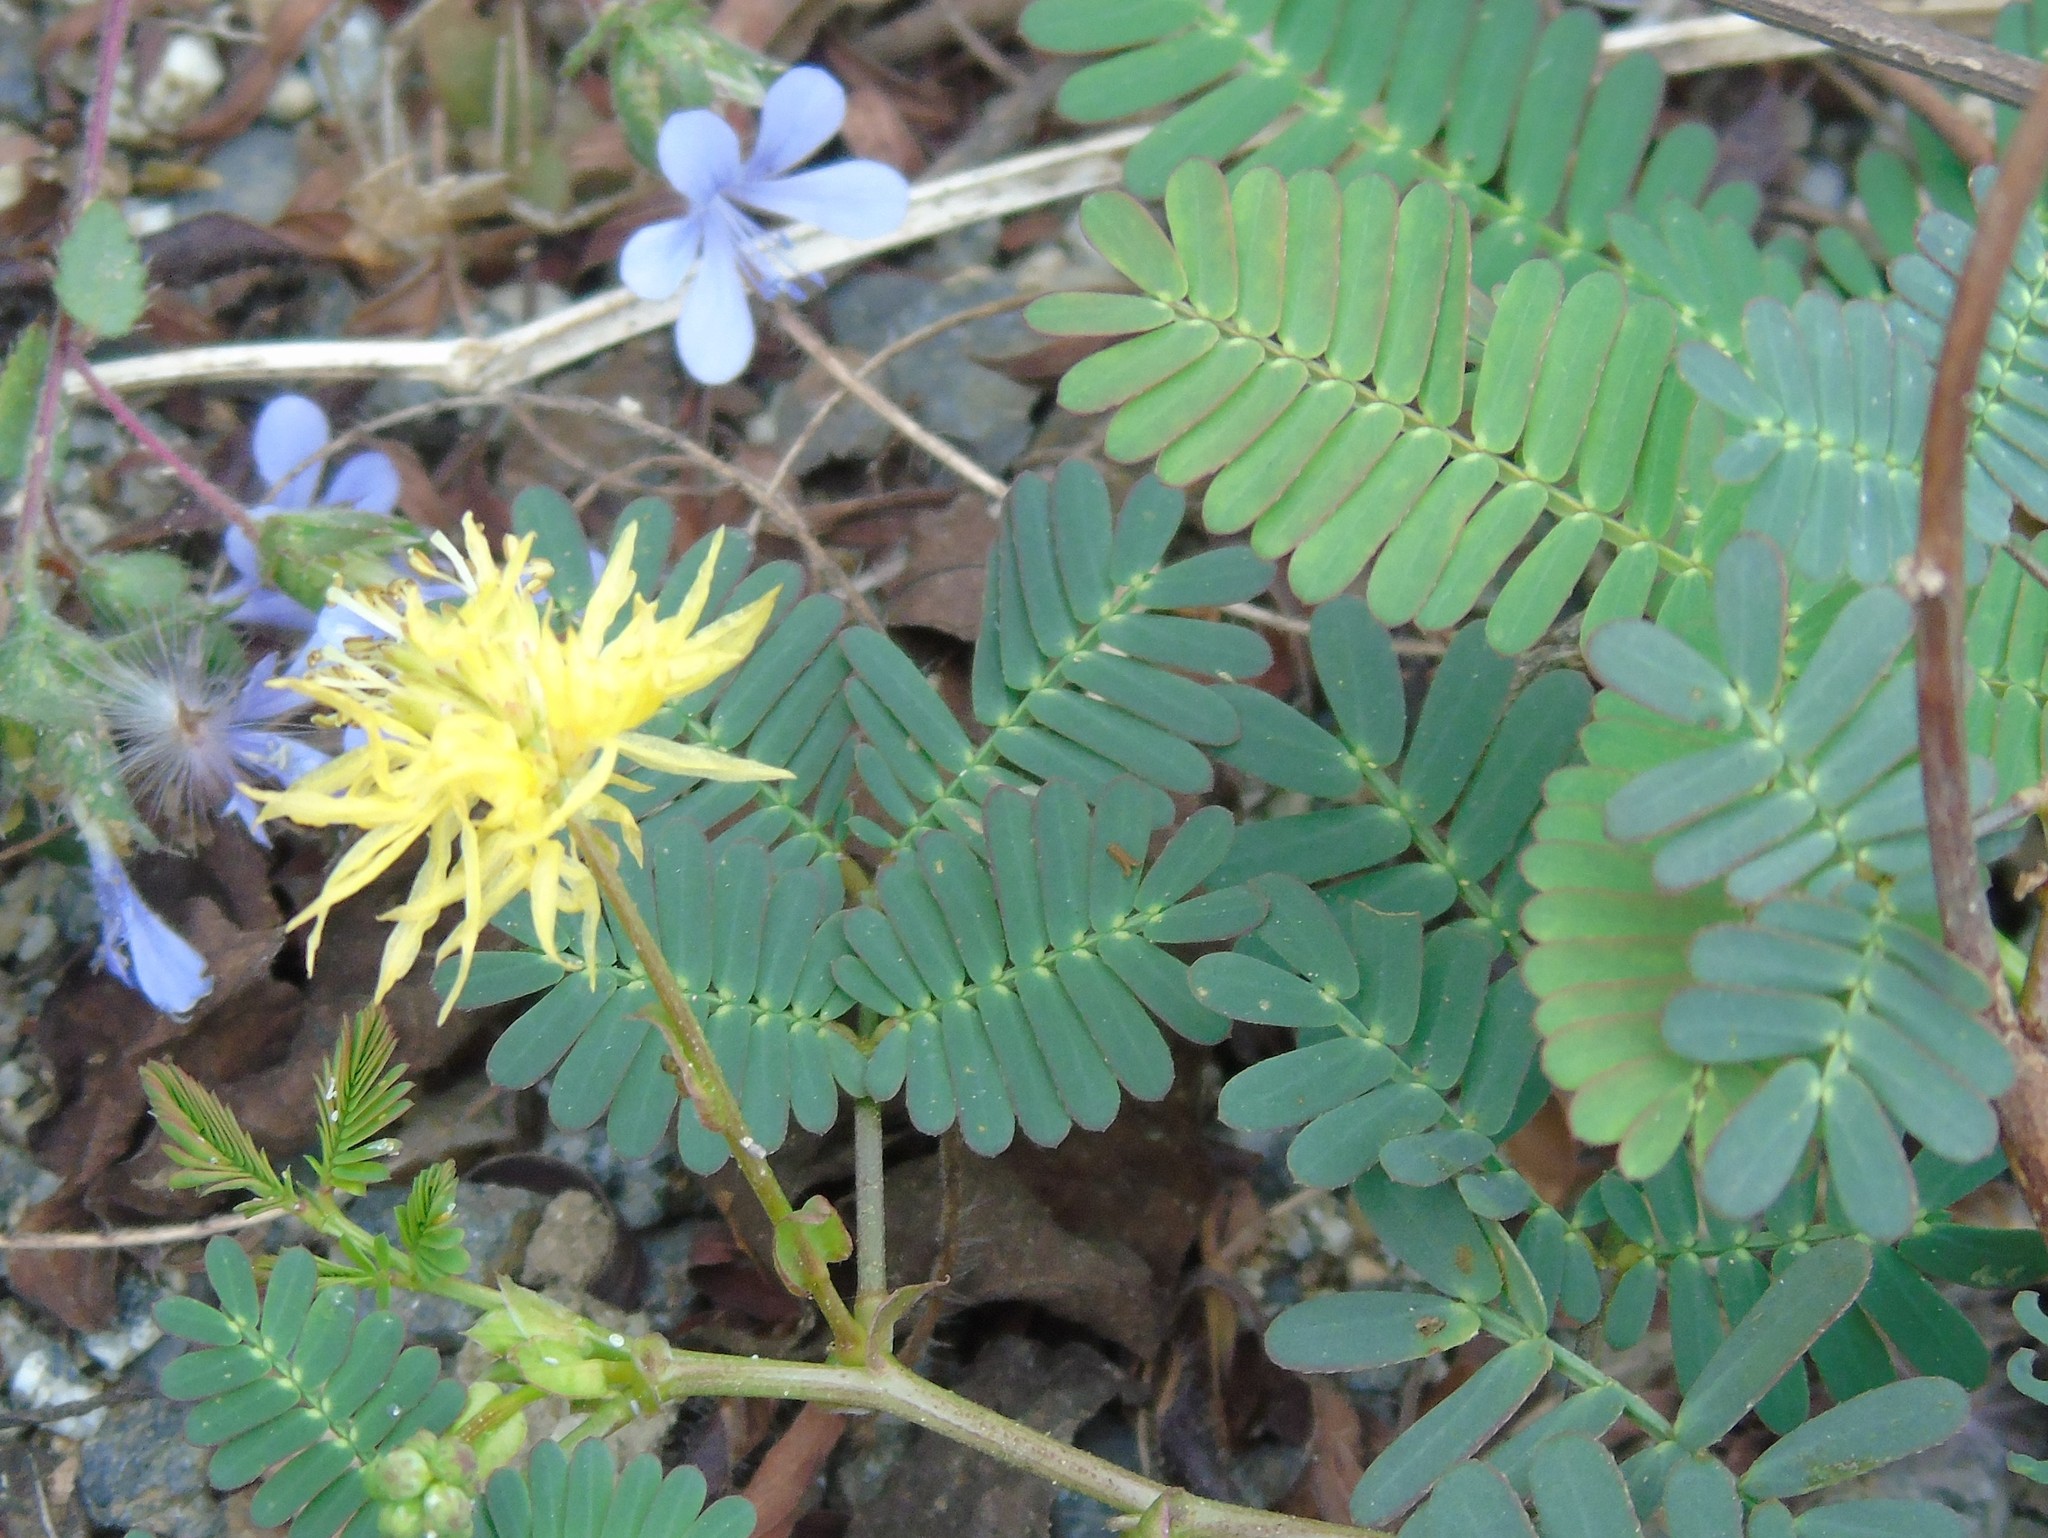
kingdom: Plantae
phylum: Tracheophyta
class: Magnoliopsida
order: Fabales
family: Fabaceae
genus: Neptunia
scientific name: Neptunia
